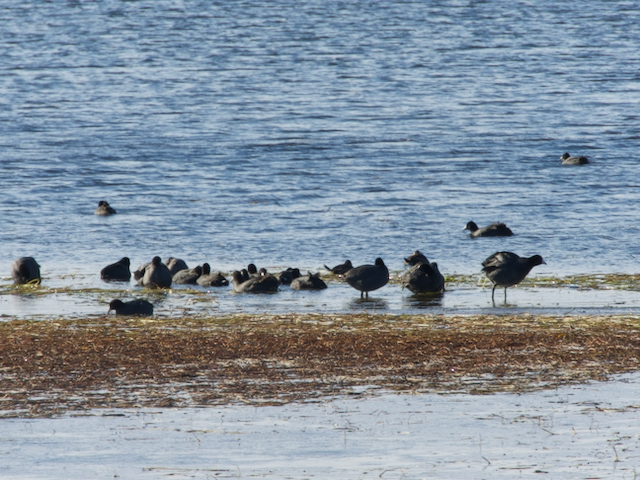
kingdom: Animalia
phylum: Chordata
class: Aves
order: Gruiformes
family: Rallidae
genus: Fulica
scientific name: Fulica americana
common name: American coot
